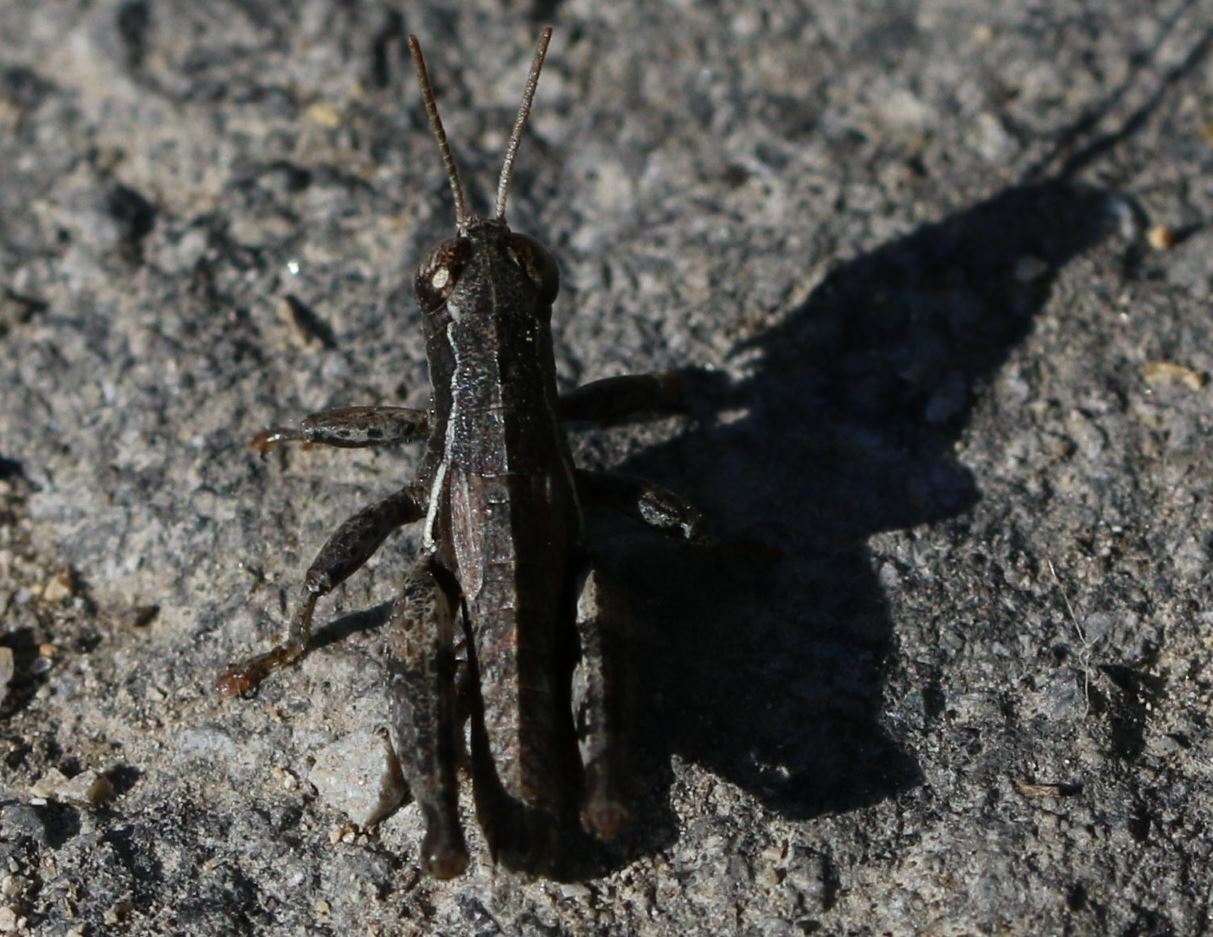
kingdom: Animalia
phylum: Arthropoda
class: Insecta
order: Orthoptera
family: Acrididae
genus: Pezotettix
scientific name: Pezotettix giornae
